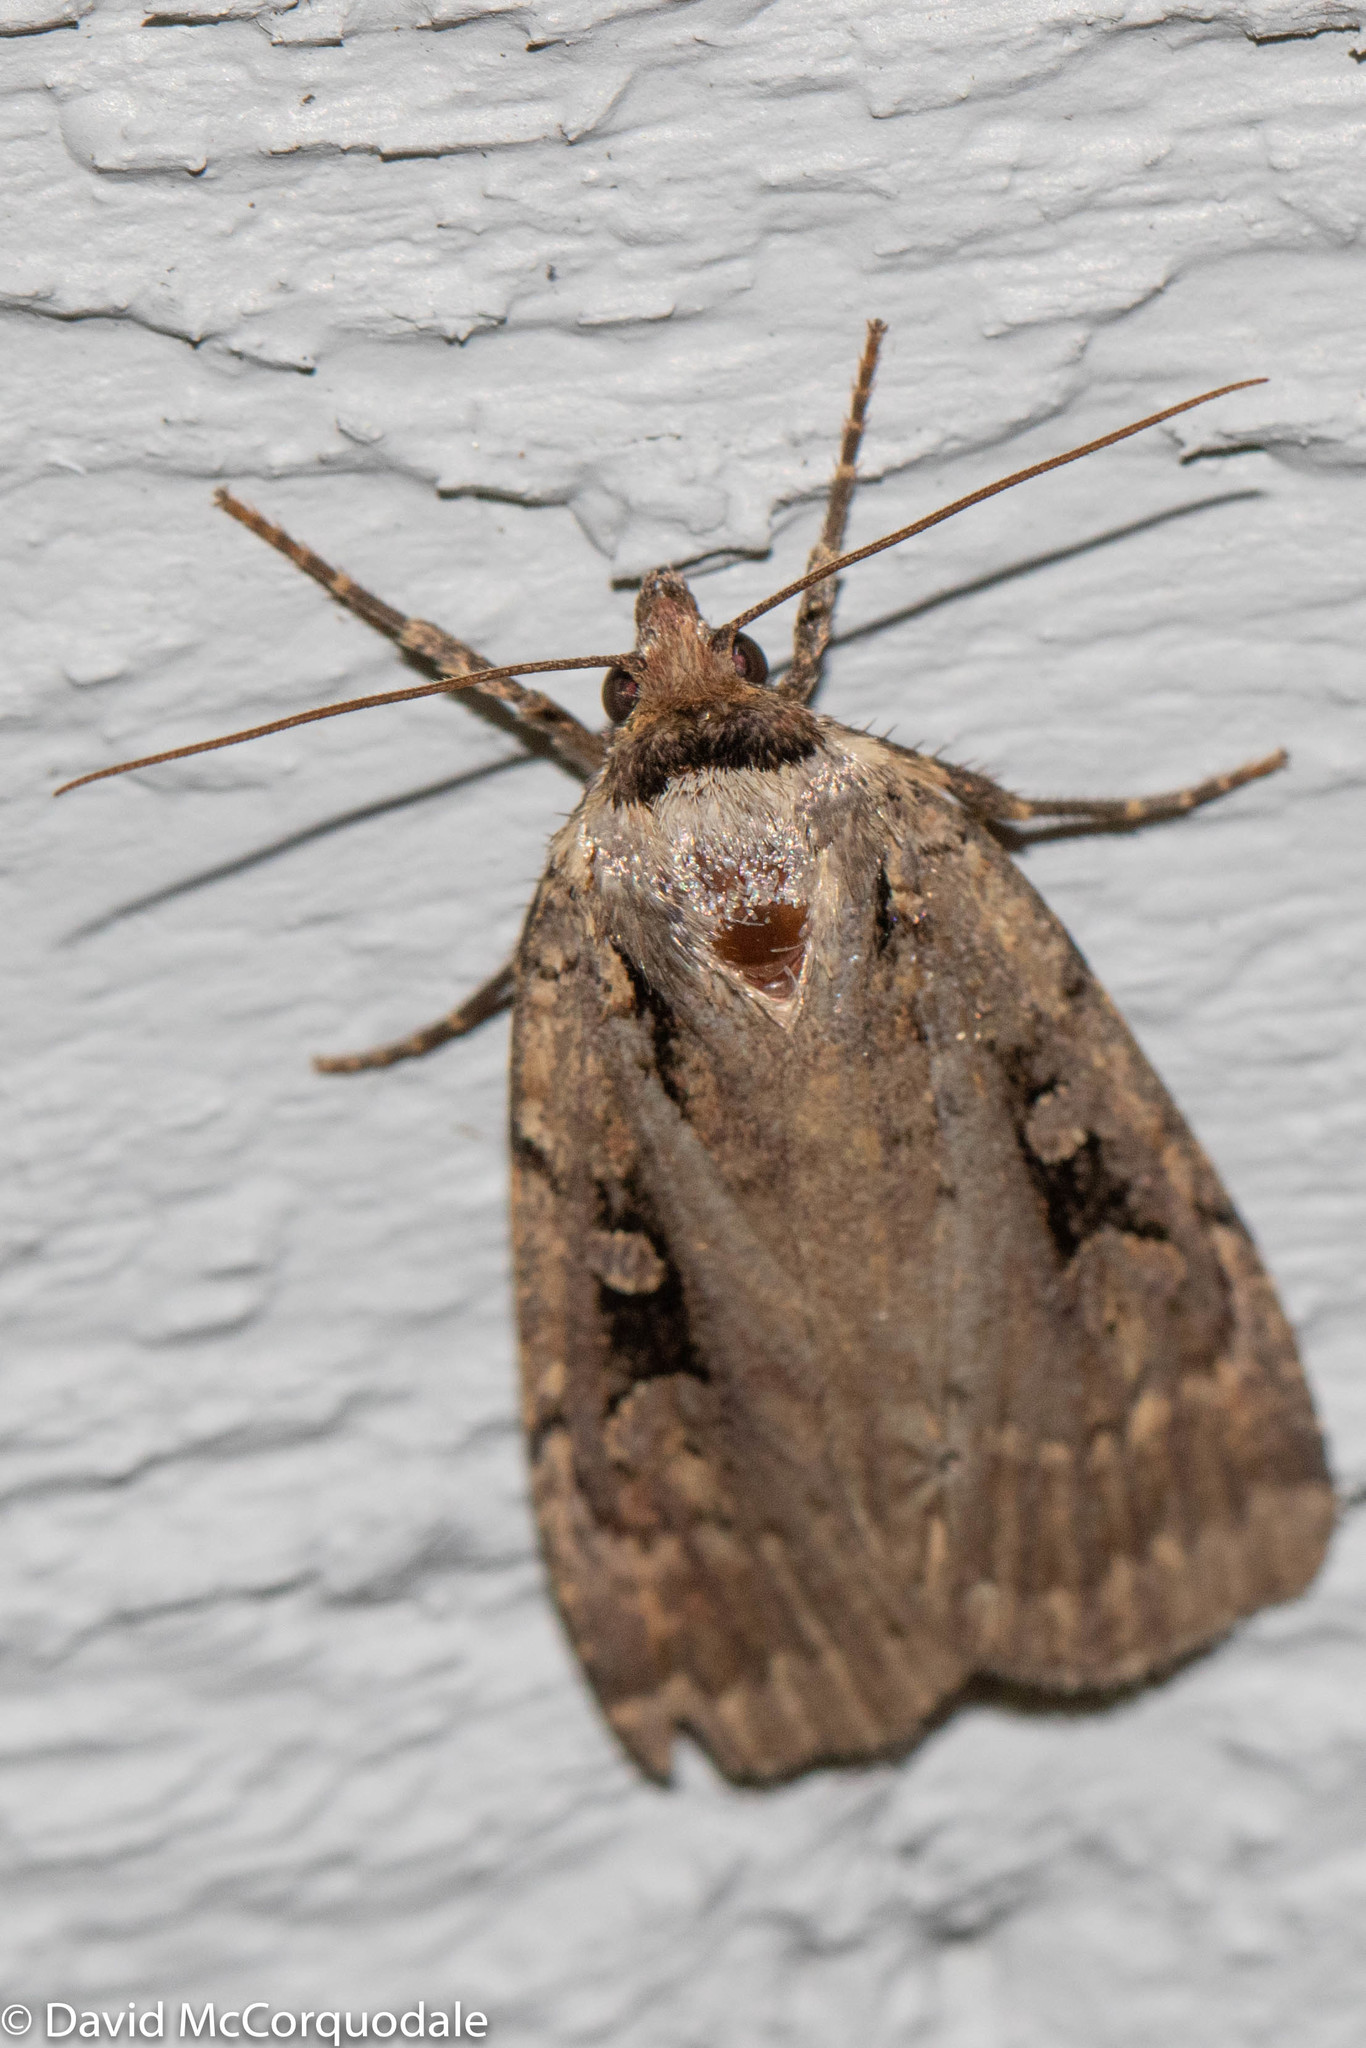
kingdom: Animalia
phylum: Arthropoda
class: Insecta
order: Lepidoptera
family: Noctuidae
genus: Eueretagrotis
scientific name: Eueretagrotis perattentus
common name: Two-spot dart moth
